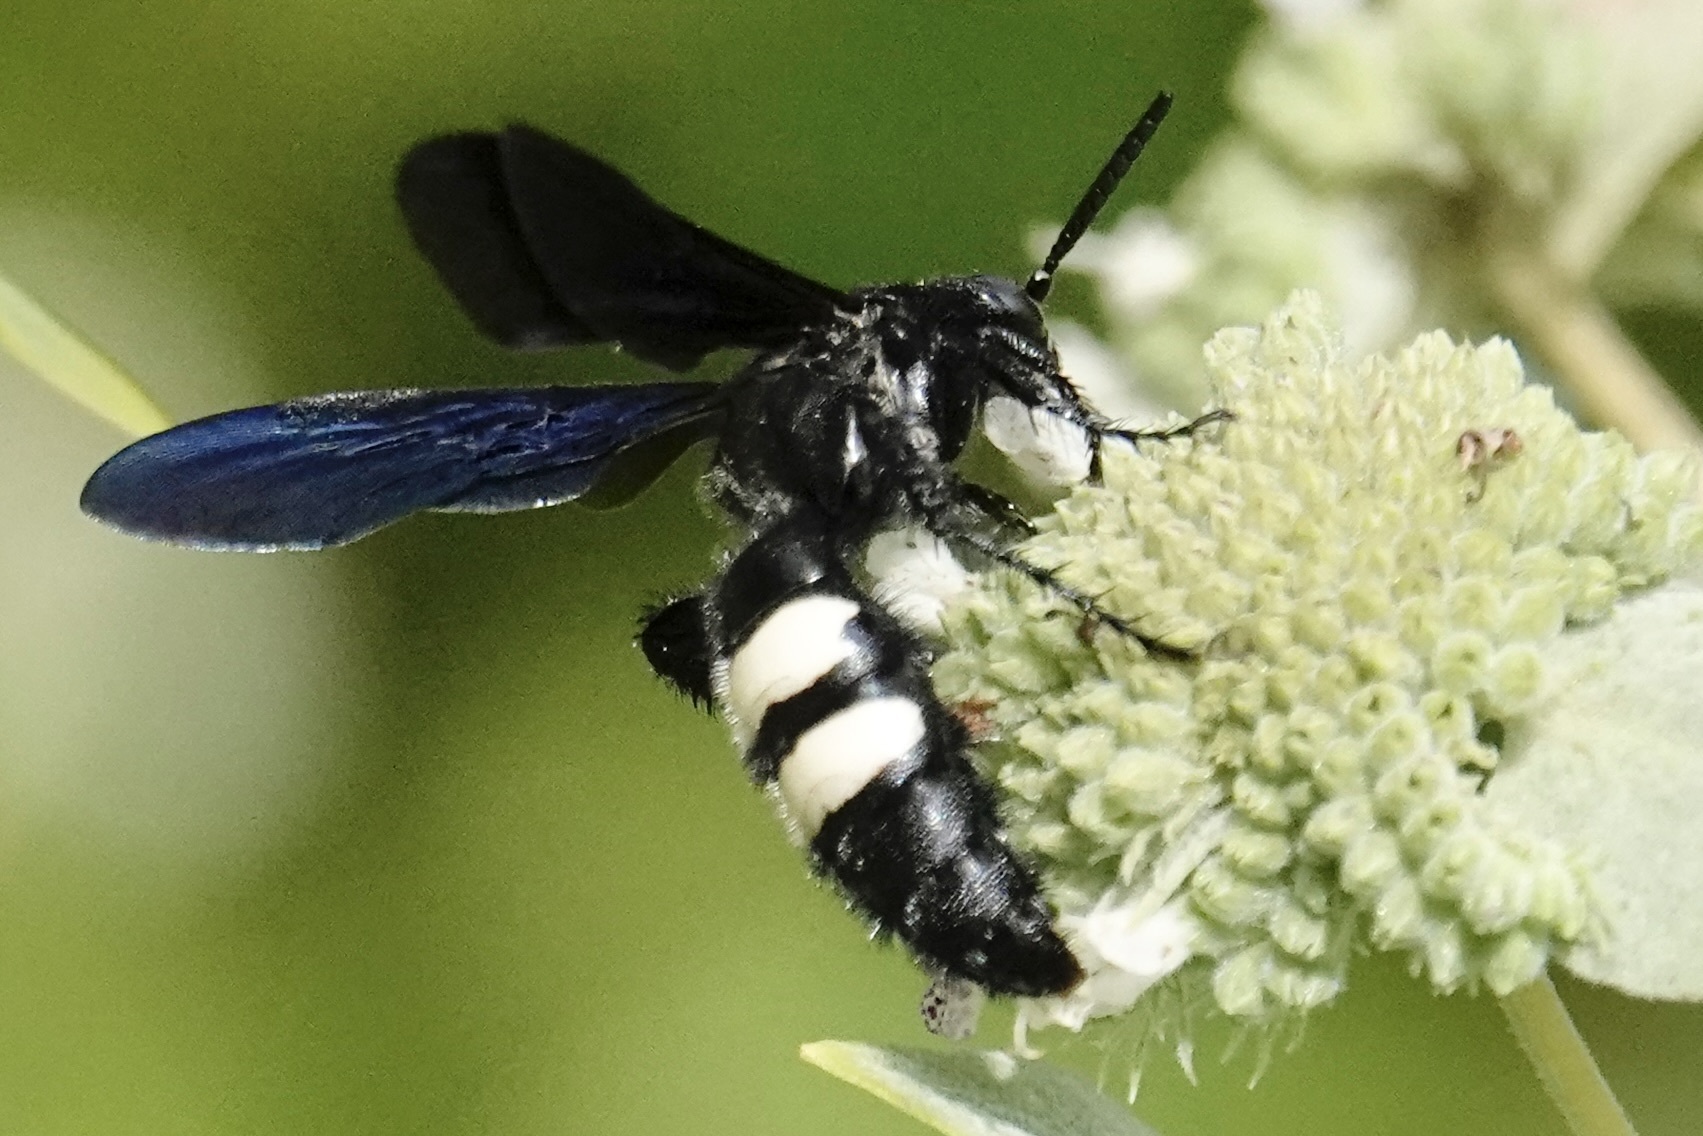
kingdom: Animalia
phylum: Arthropoda
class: Insecta
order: Hymenoptera
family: Scoliidae
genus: Scolia
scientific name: Scolia bicincta
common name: Double-banded scoliid wasp
